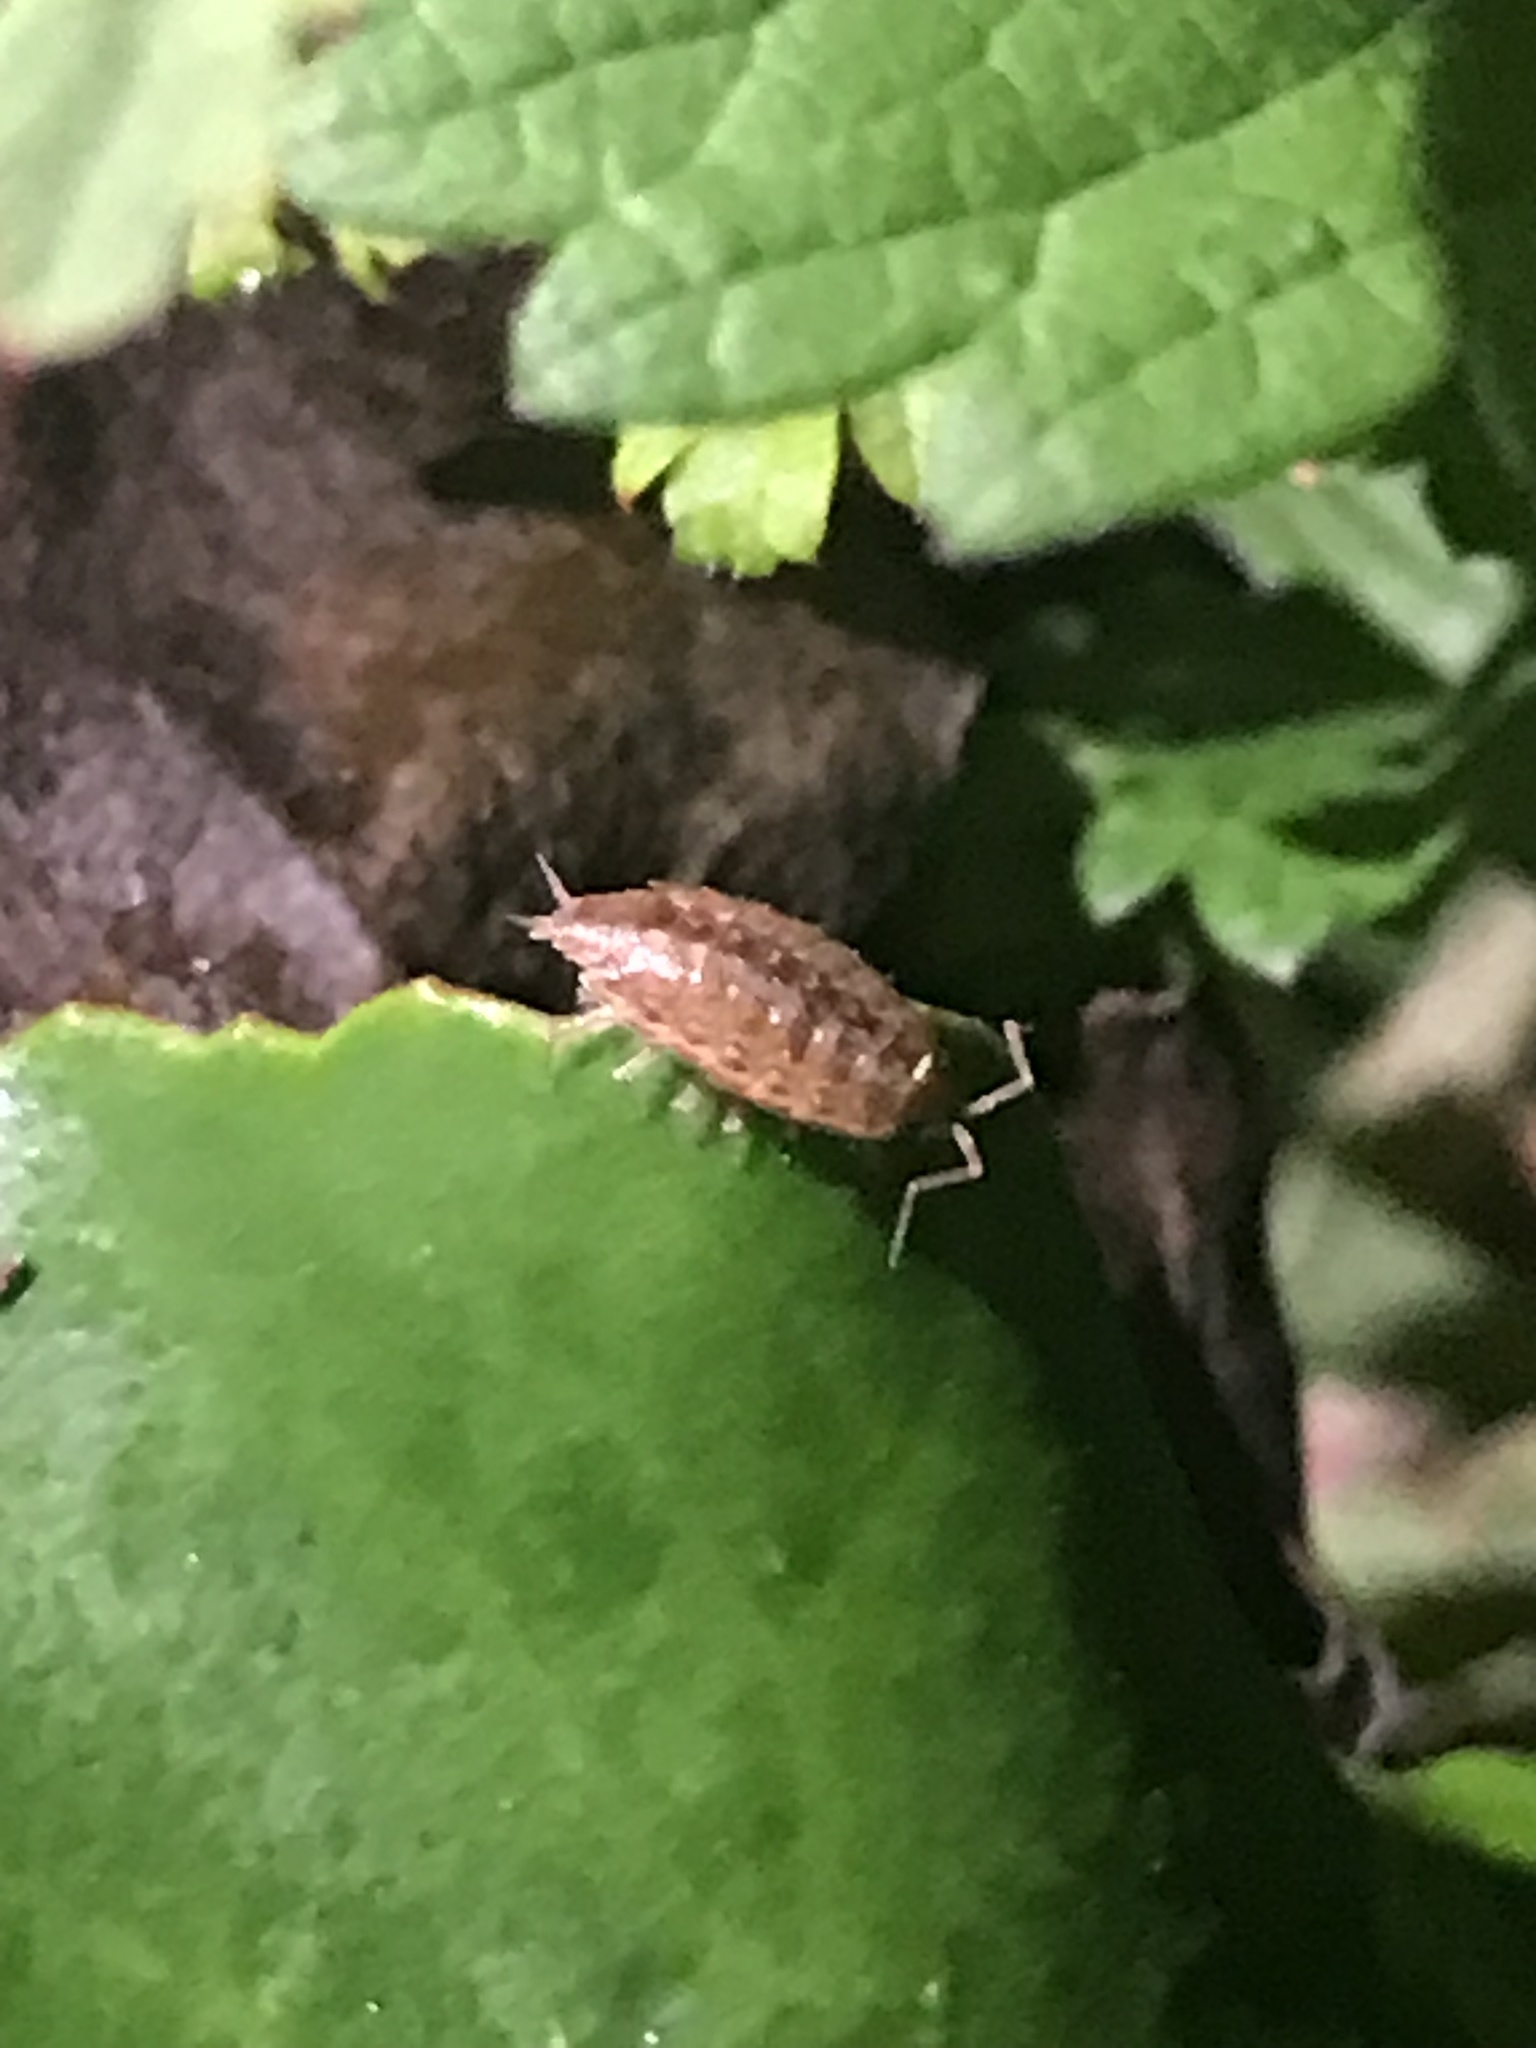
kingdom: Animalia
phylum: Arthropoda
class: Malacostraca
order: Isopoda
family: Philosciidae
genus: Philoscia
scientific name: Philoscia muscorum
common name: Common striped woodlouse
